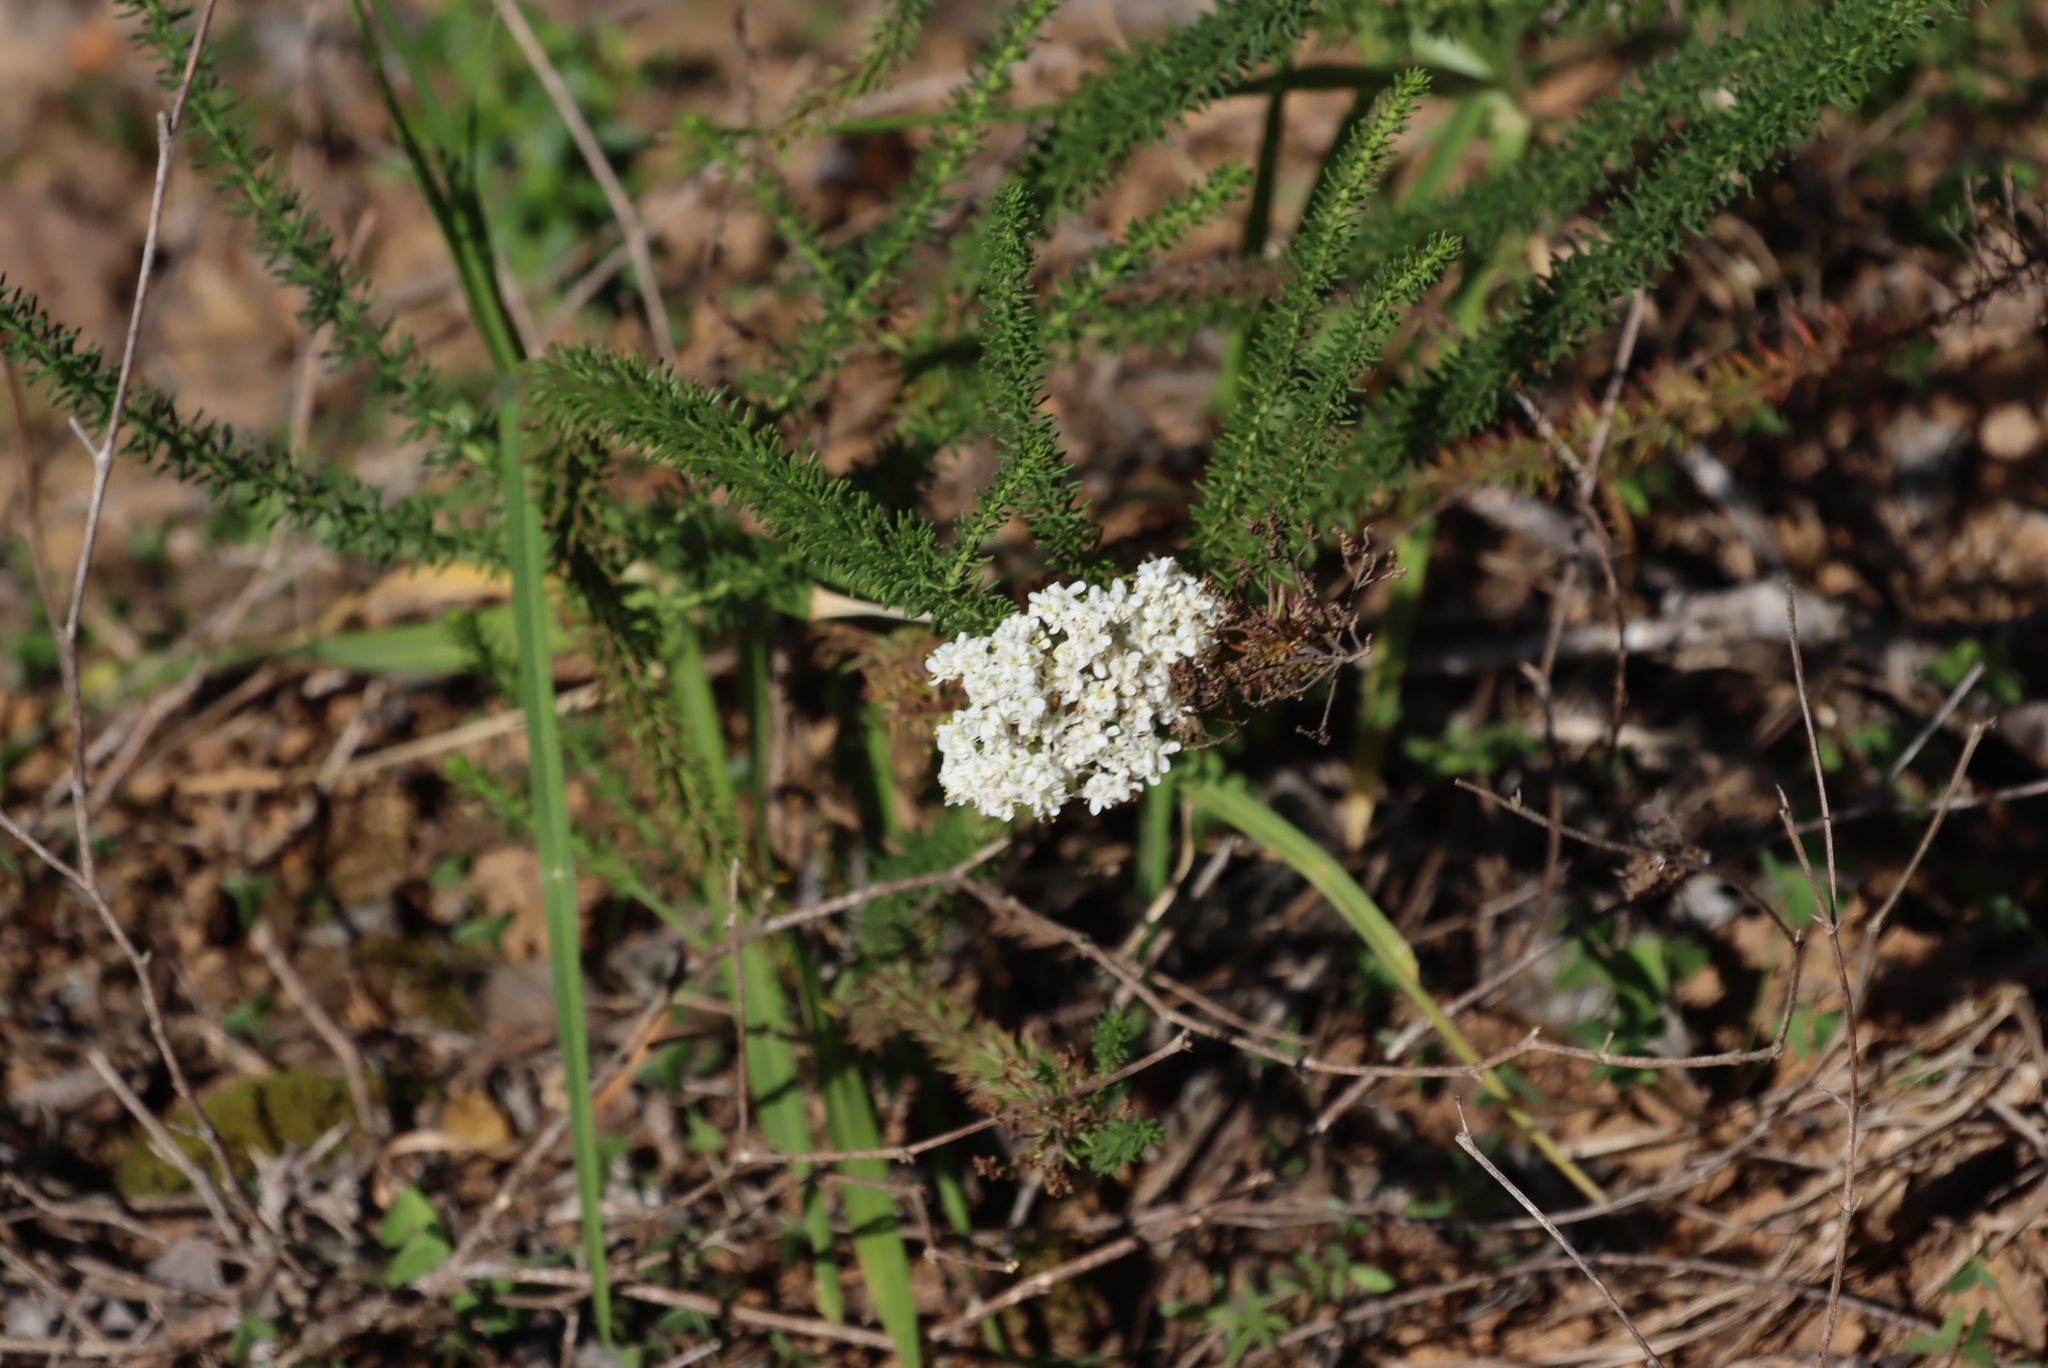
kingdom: Plantae
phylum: Tracheophyta
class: Magnoliopsida
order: Lamiales
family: Scrophulariaceae
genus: Selago
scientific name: Selago corymbosa
